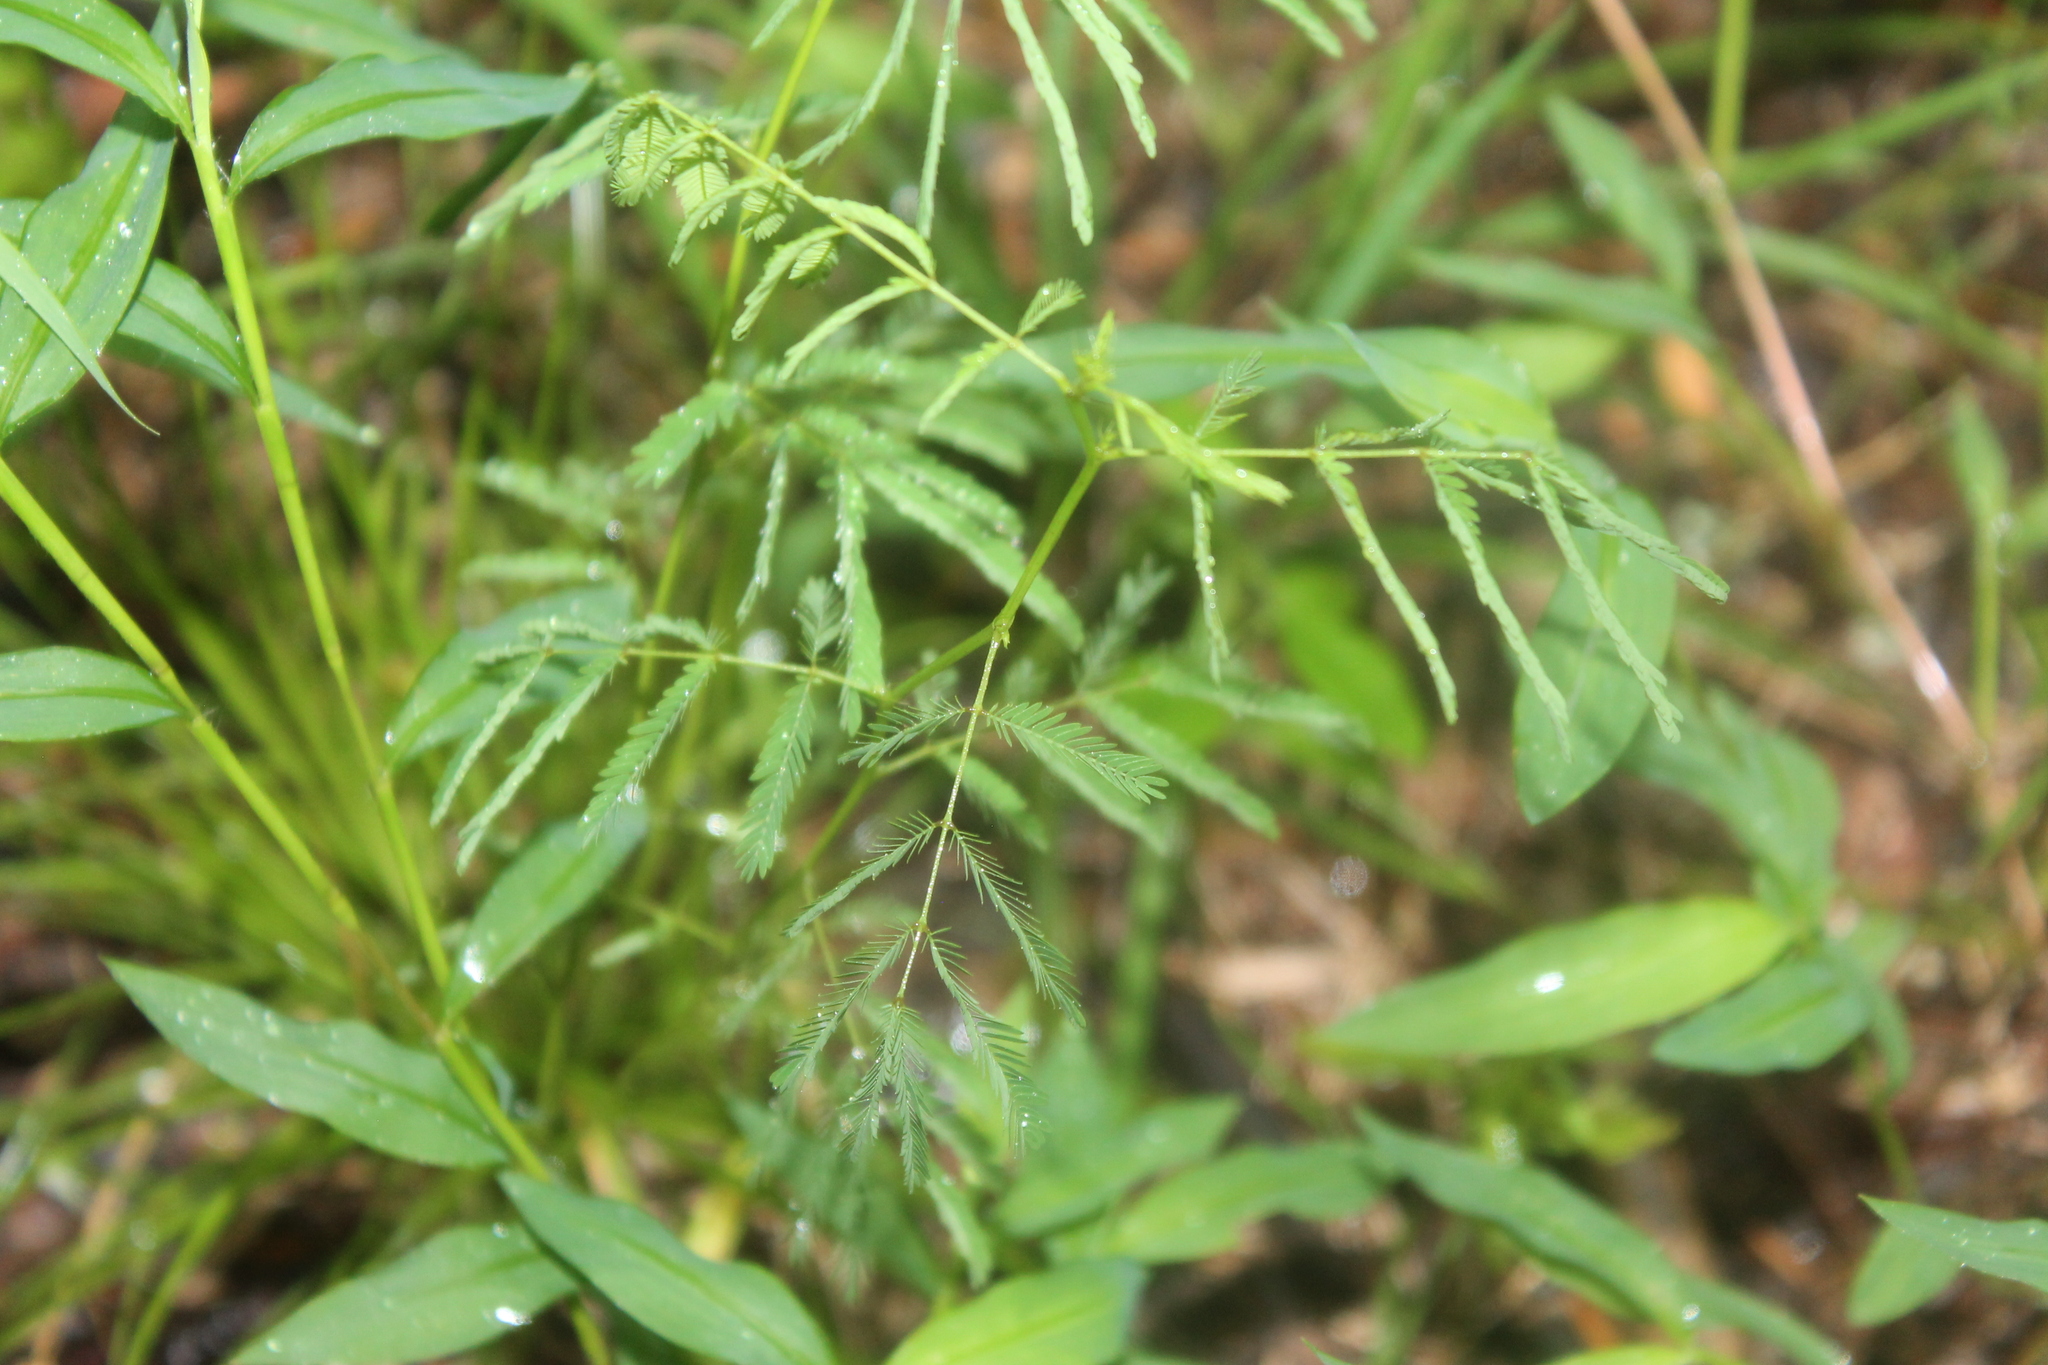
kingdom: Plantae
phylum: Tracheophyta
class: Magnoliopsida
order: Fabales
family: Fabaceae
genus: Desmanthus
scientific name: Desmanthus illinoensis
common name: Illinois bundle-flower
